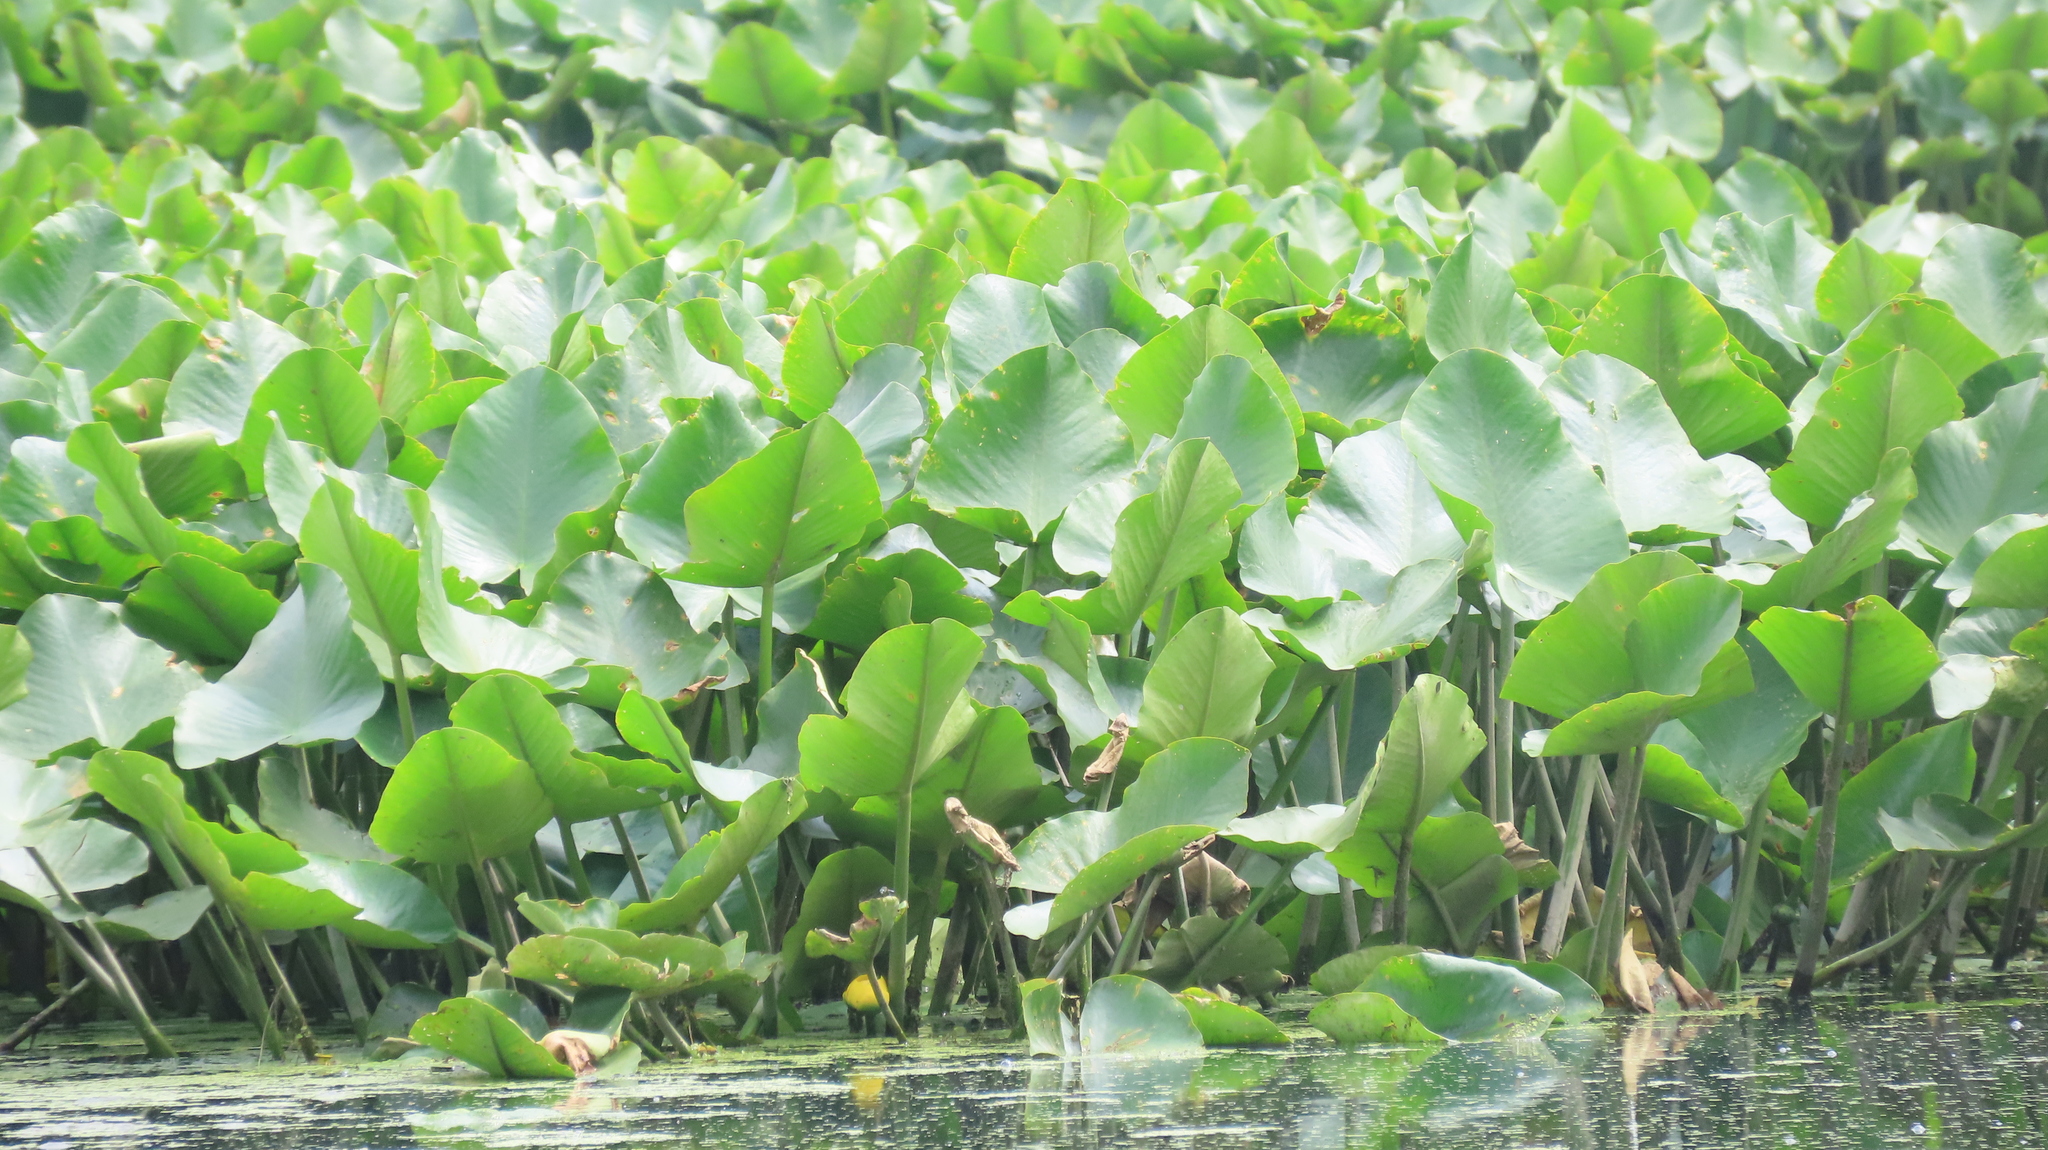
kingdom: Plantae
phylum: Tracheophyta
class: Magnoliopsida
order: Nymphaeales
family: Nymphaeaceae
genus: Nuphar
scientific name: Nuphar advena
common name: Spatter-dock
